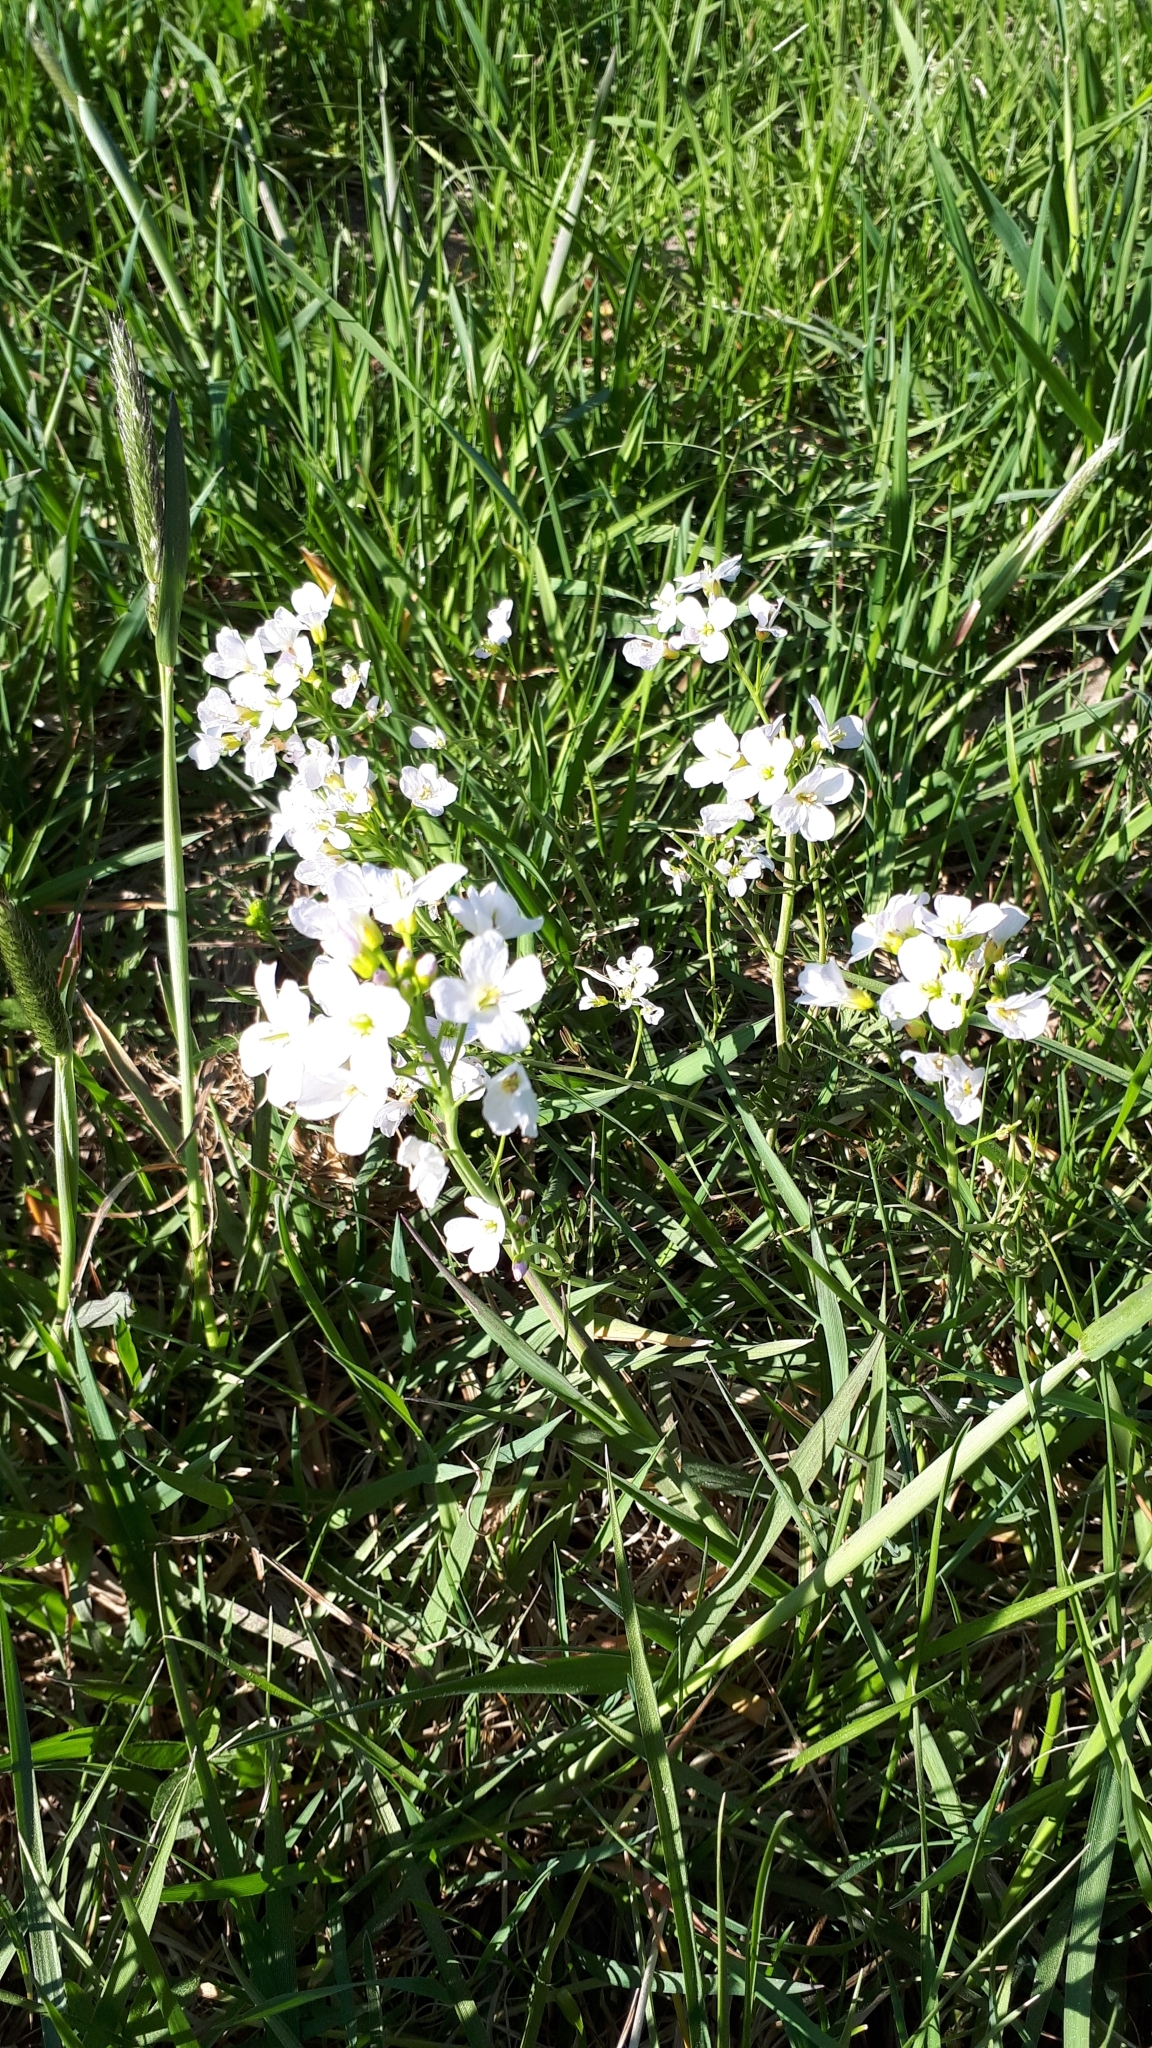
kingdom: Plantae
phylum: Tracheophyta
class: Magnoliopsida
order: Brassicales
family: Brassicaceae
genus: Cardamine
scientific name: Cardamine pratensis
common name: Cuckoo flower
